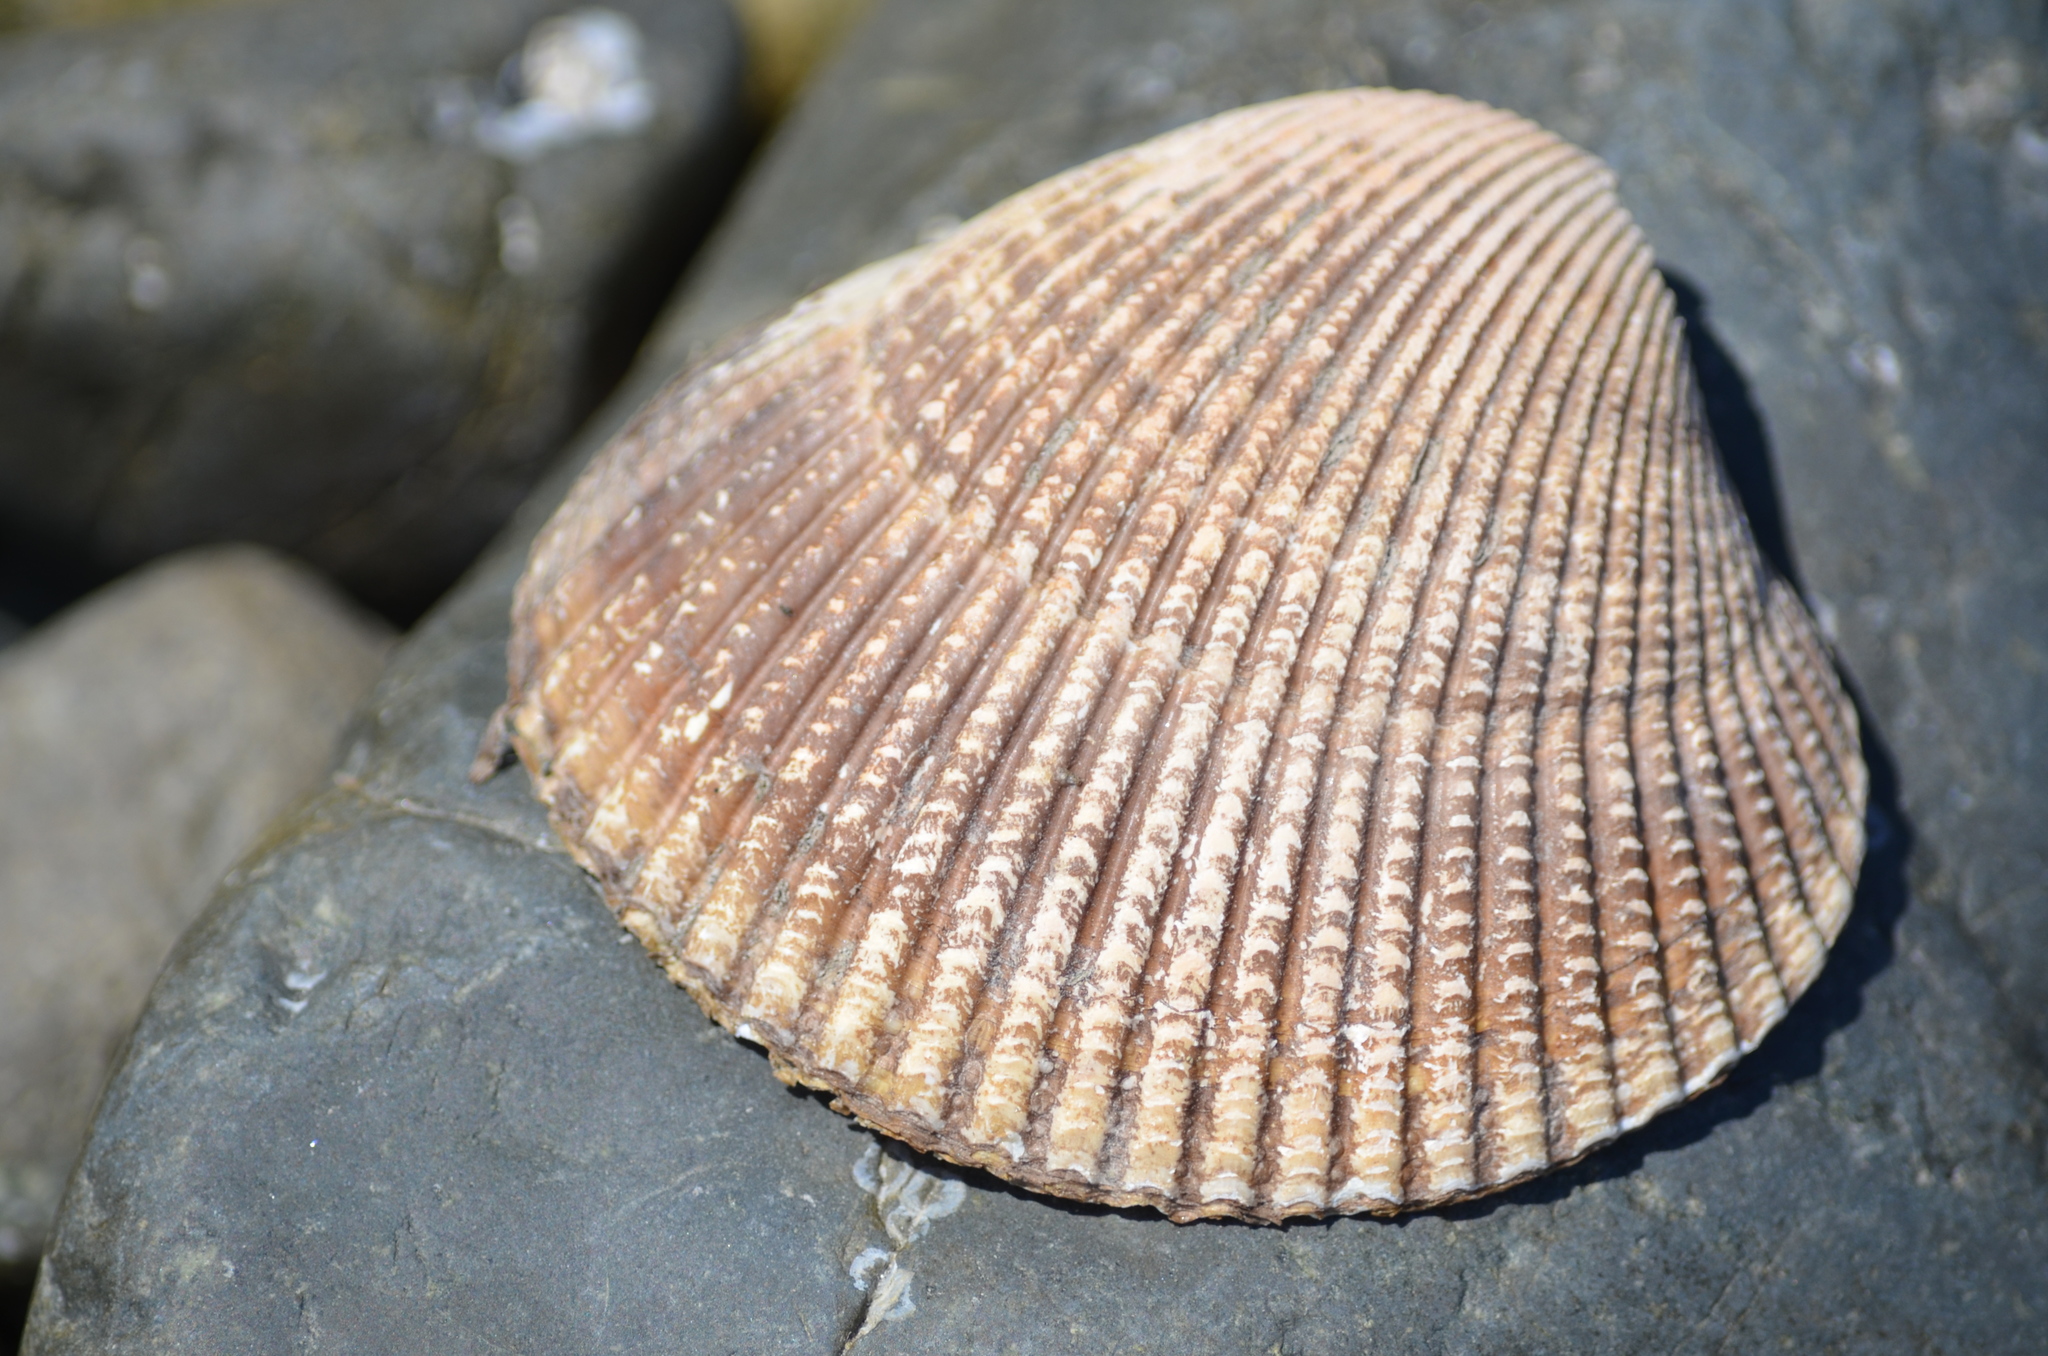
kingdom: Animalia
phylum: Mollusca
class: Bivalvia
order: Cardiida
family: Cardiidae
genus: Clinocardium
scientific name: Clinocardium nuttallii
